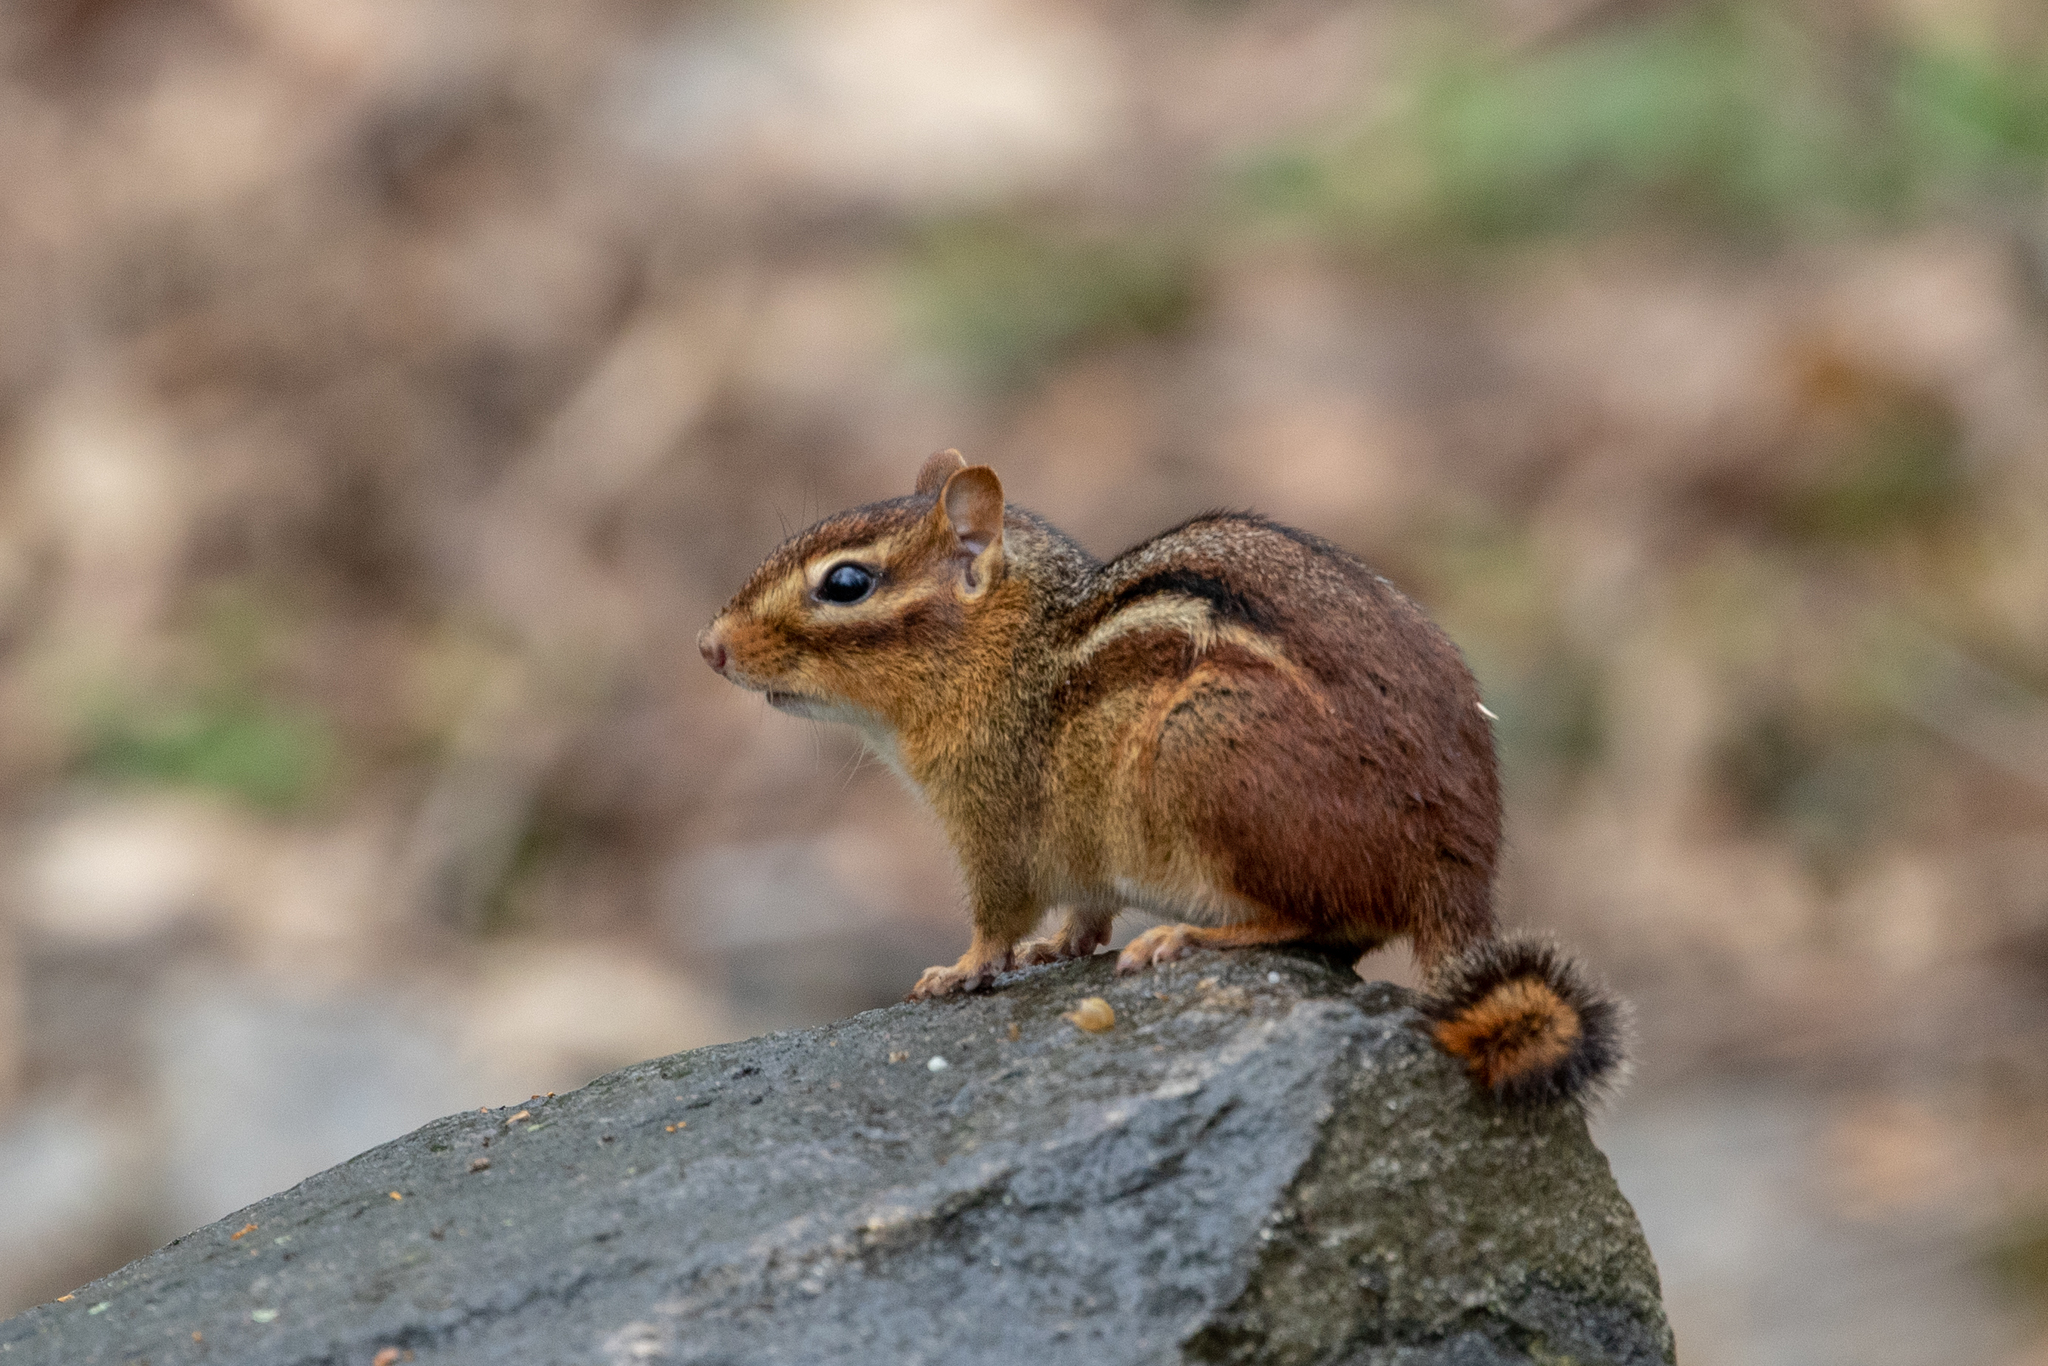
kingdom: Animalia
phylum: Chordata
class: Mammalia
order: Rodentia
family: Sciuridae
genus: Tamias
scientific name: Tamias striatus
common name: Eastern chipmunk
